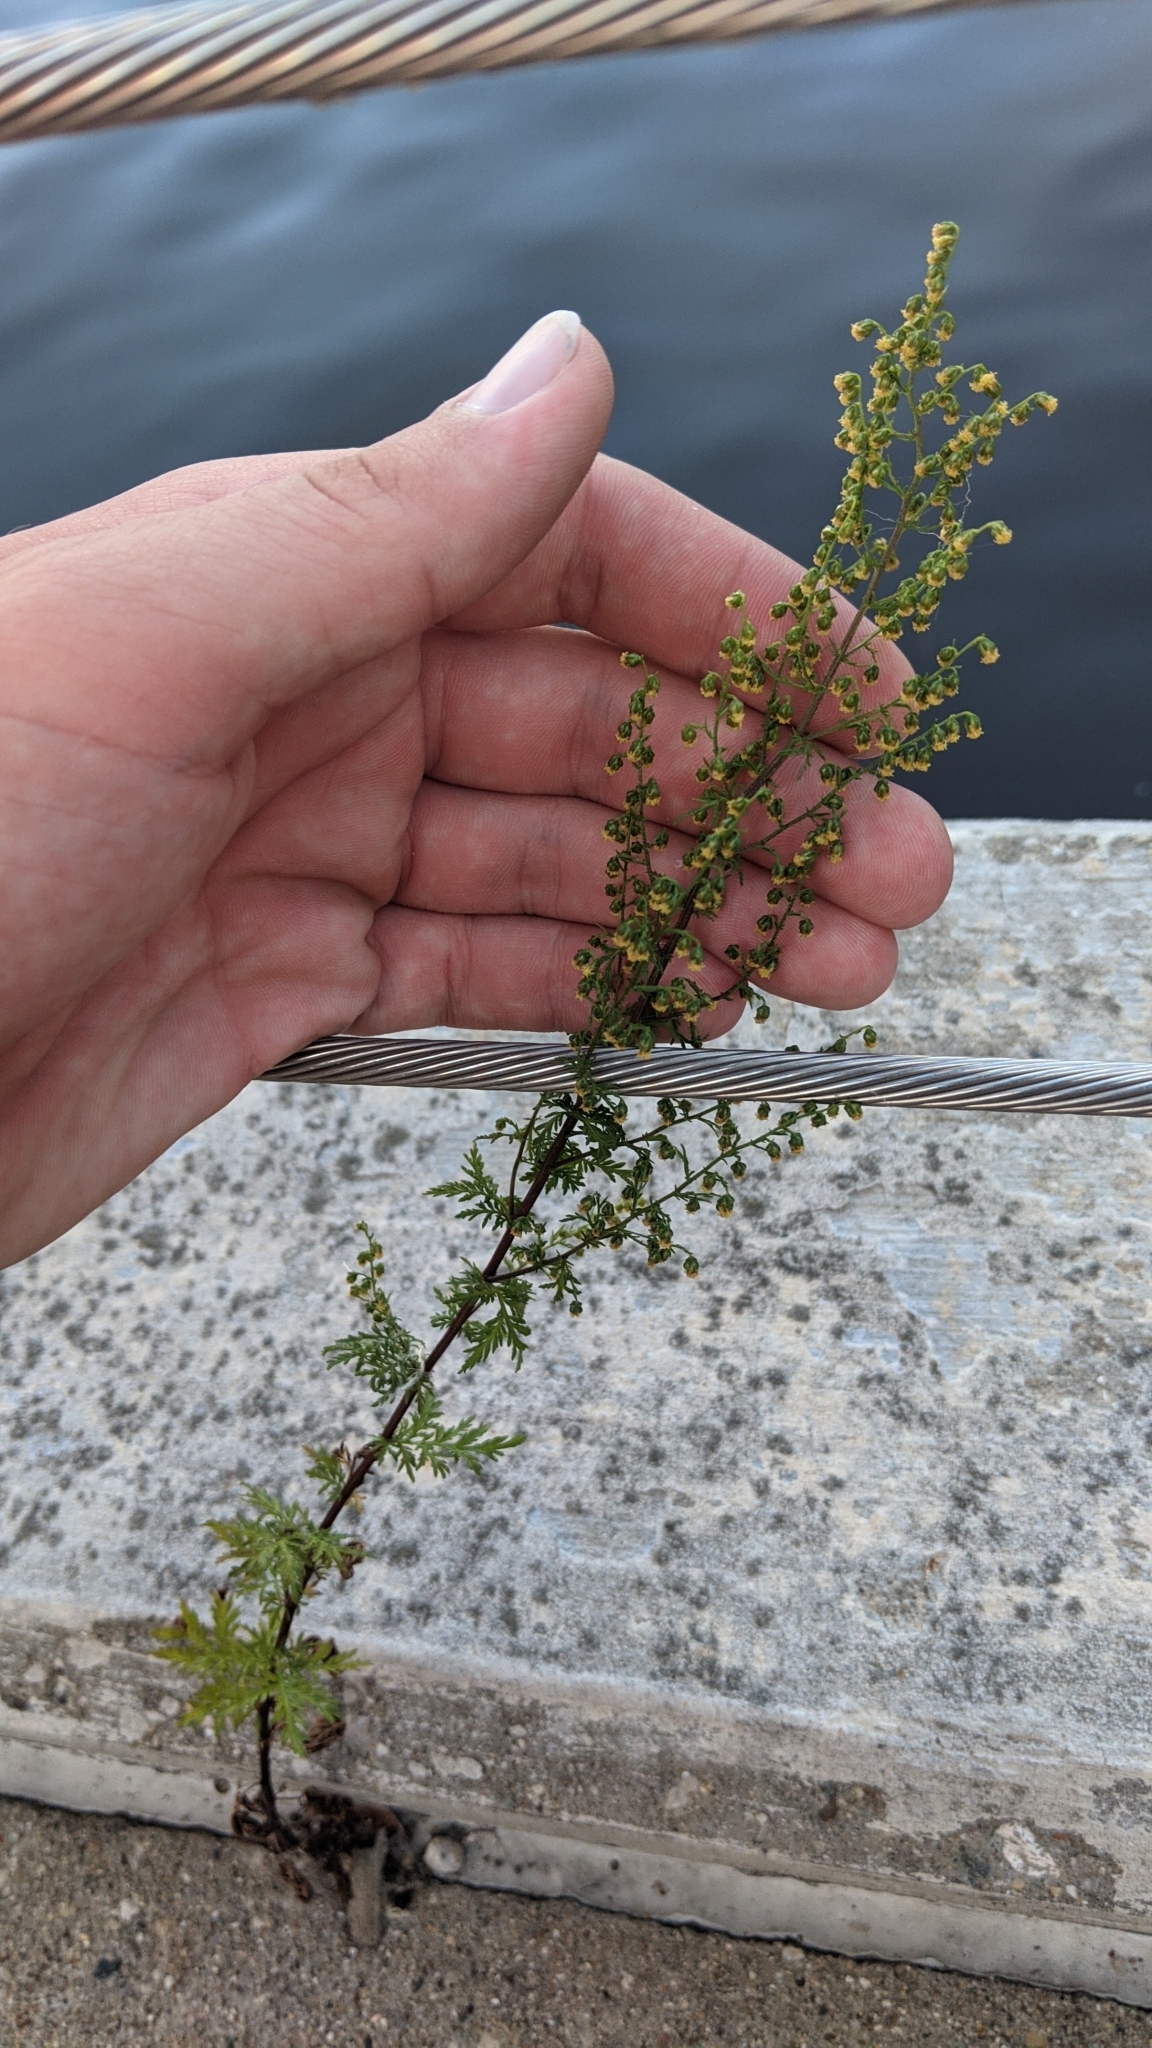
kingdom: Plantae
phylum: Tracheophyta
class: Magnoliopsida
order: Asterales
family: Asteraceae
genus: Senecio
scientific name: Senecio viscosus
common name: Sticky groundsel
